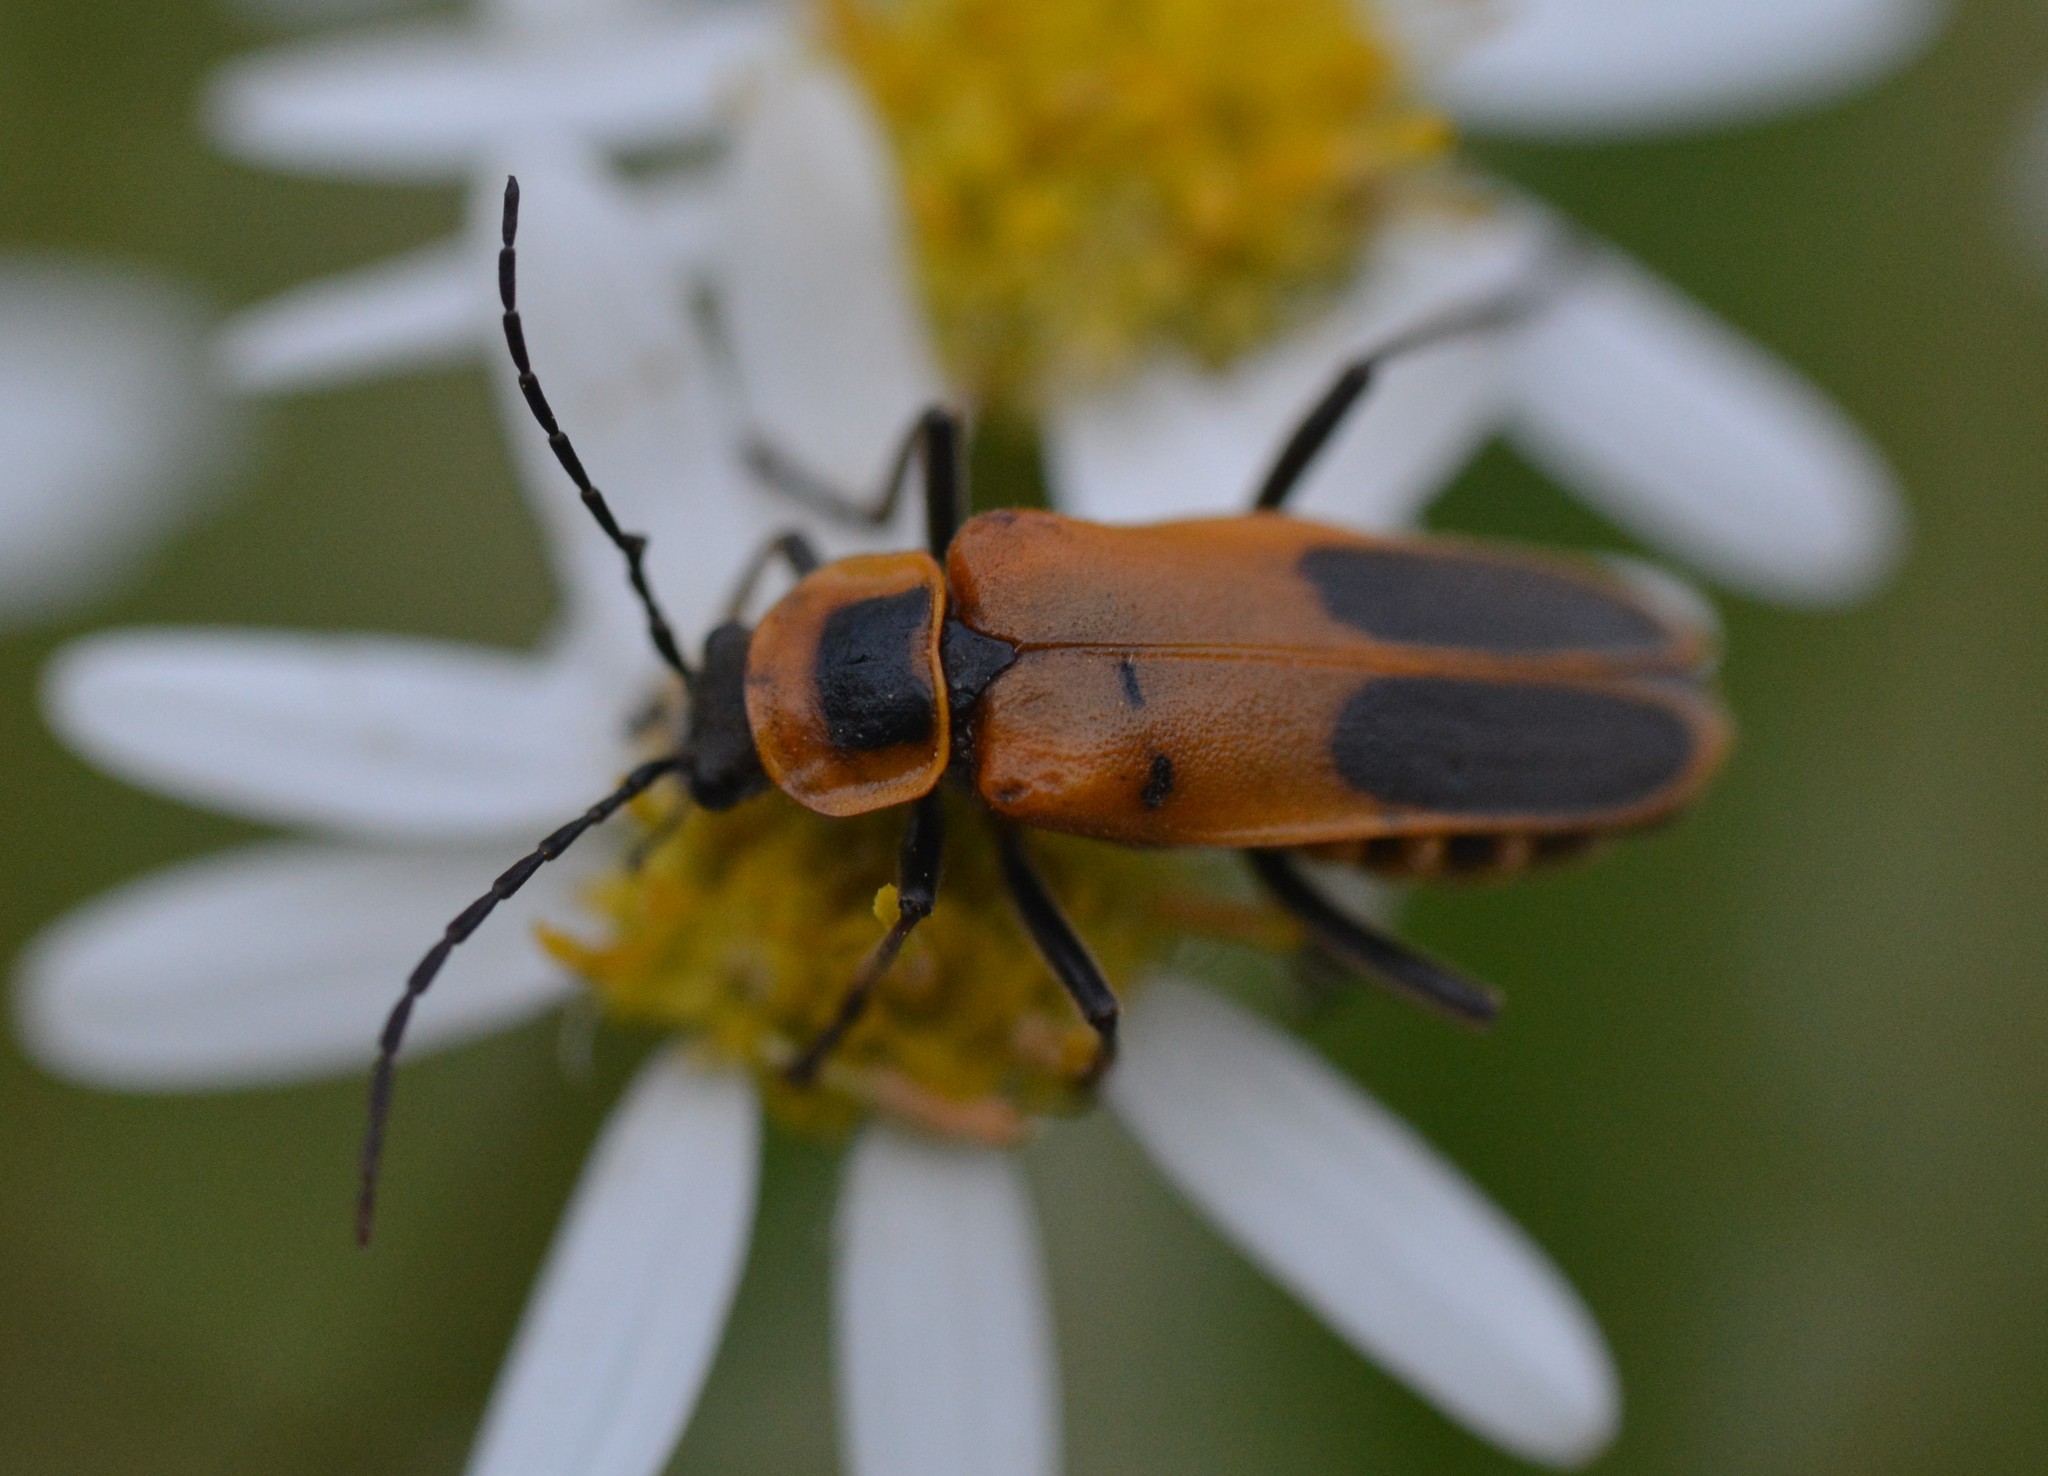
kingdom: Animalia
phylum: Arthropoda
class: Insecta
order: Coleoptera
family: Cantharidae
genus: Chauliognathus
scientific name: Chauliognathus pensylvanicus
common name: Goldenrod soldier beetle
